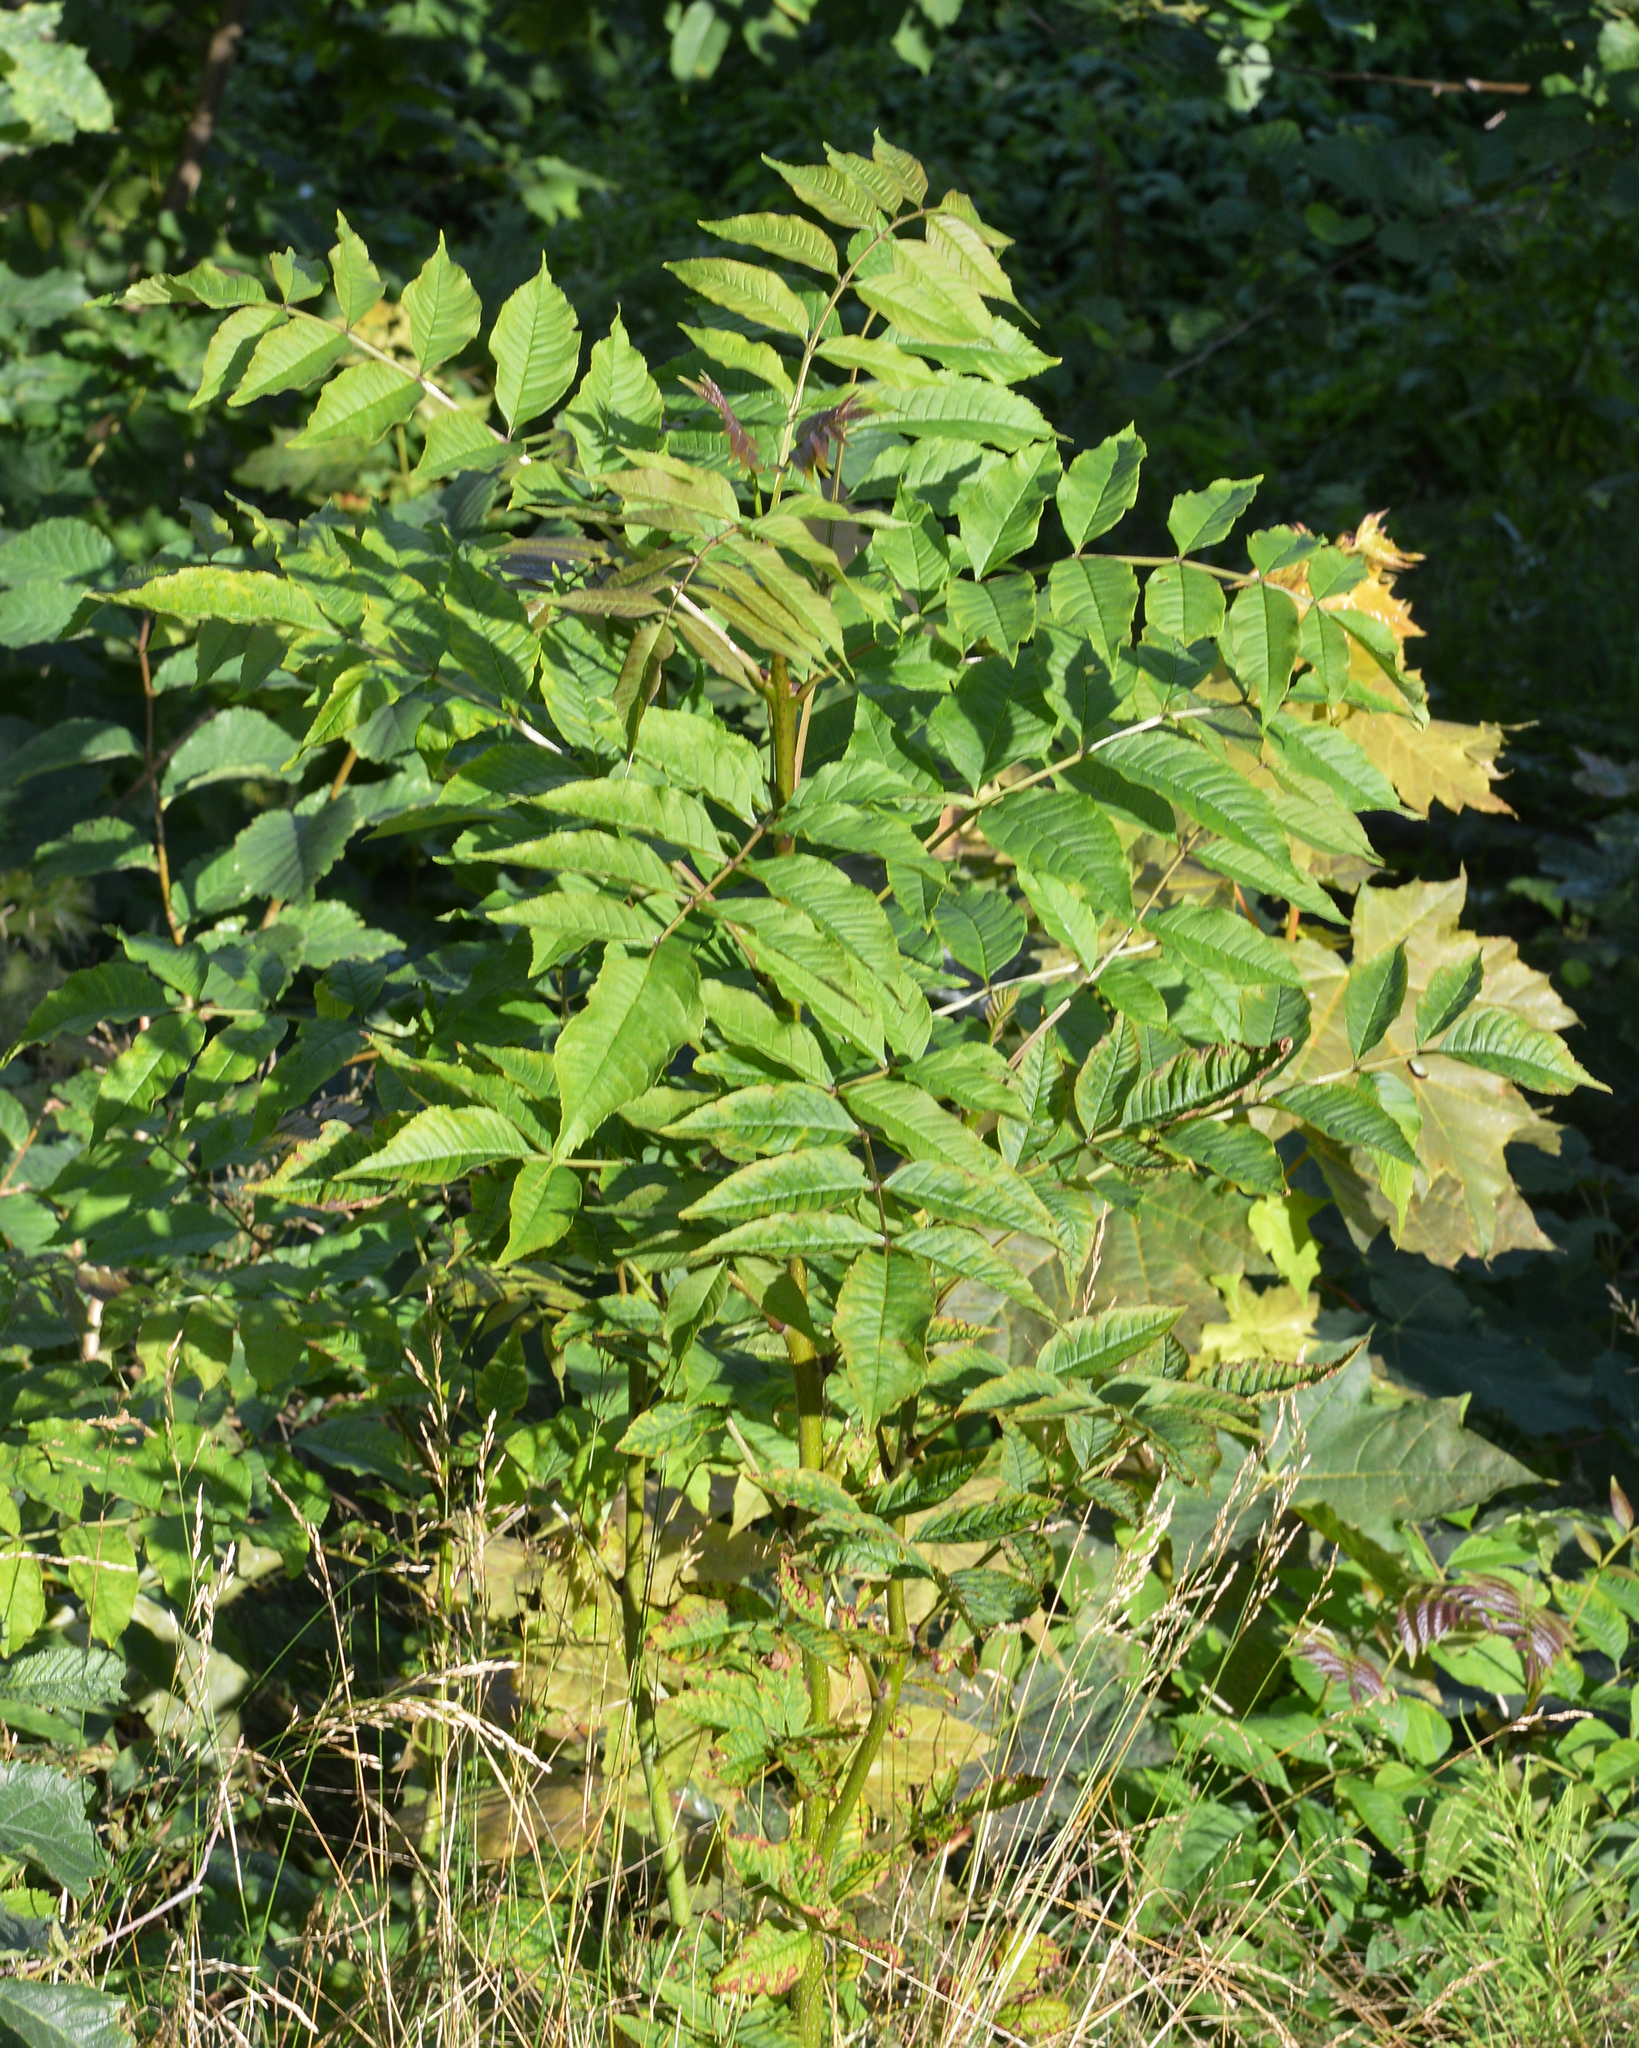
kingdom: Plantae
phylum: Tracheophyta
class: Magnoliopsida
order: Lamiales
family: Oleaceae
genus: Fraxinus
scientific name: Fraxinus excelsior
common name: European ash
